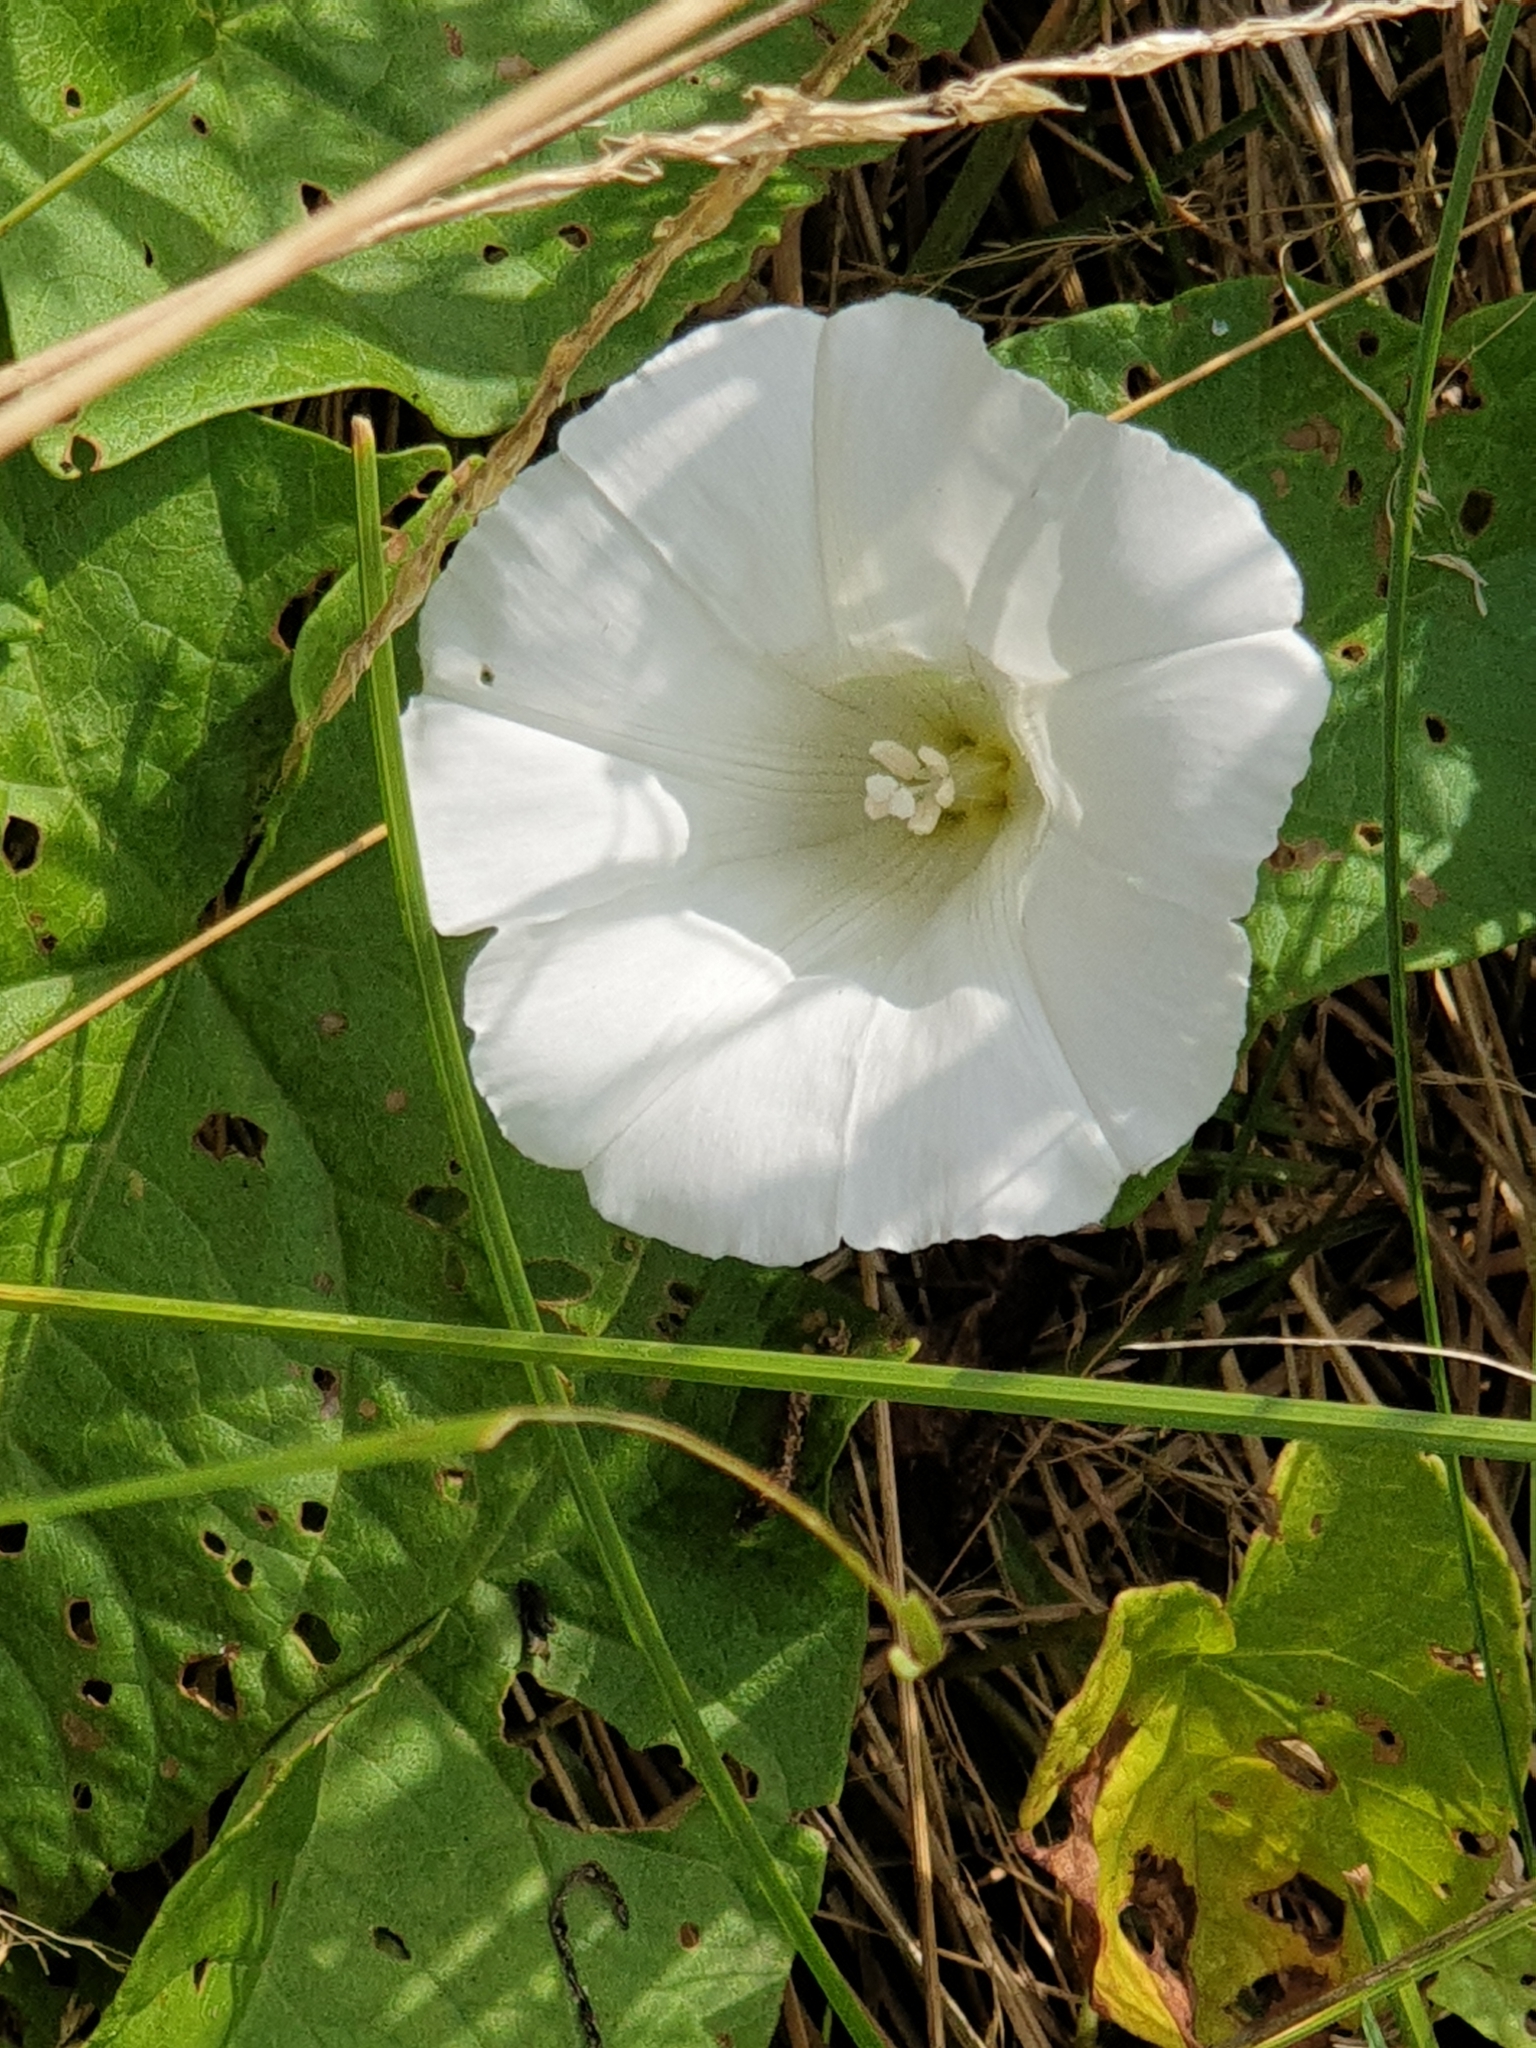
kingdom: Plantae
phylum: Tracheophyta
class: Magnoliopsida
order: Solanales
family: Convolvulaceae
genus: Calystegia
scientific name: Calystegia sepium
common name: Hedge bindweed
